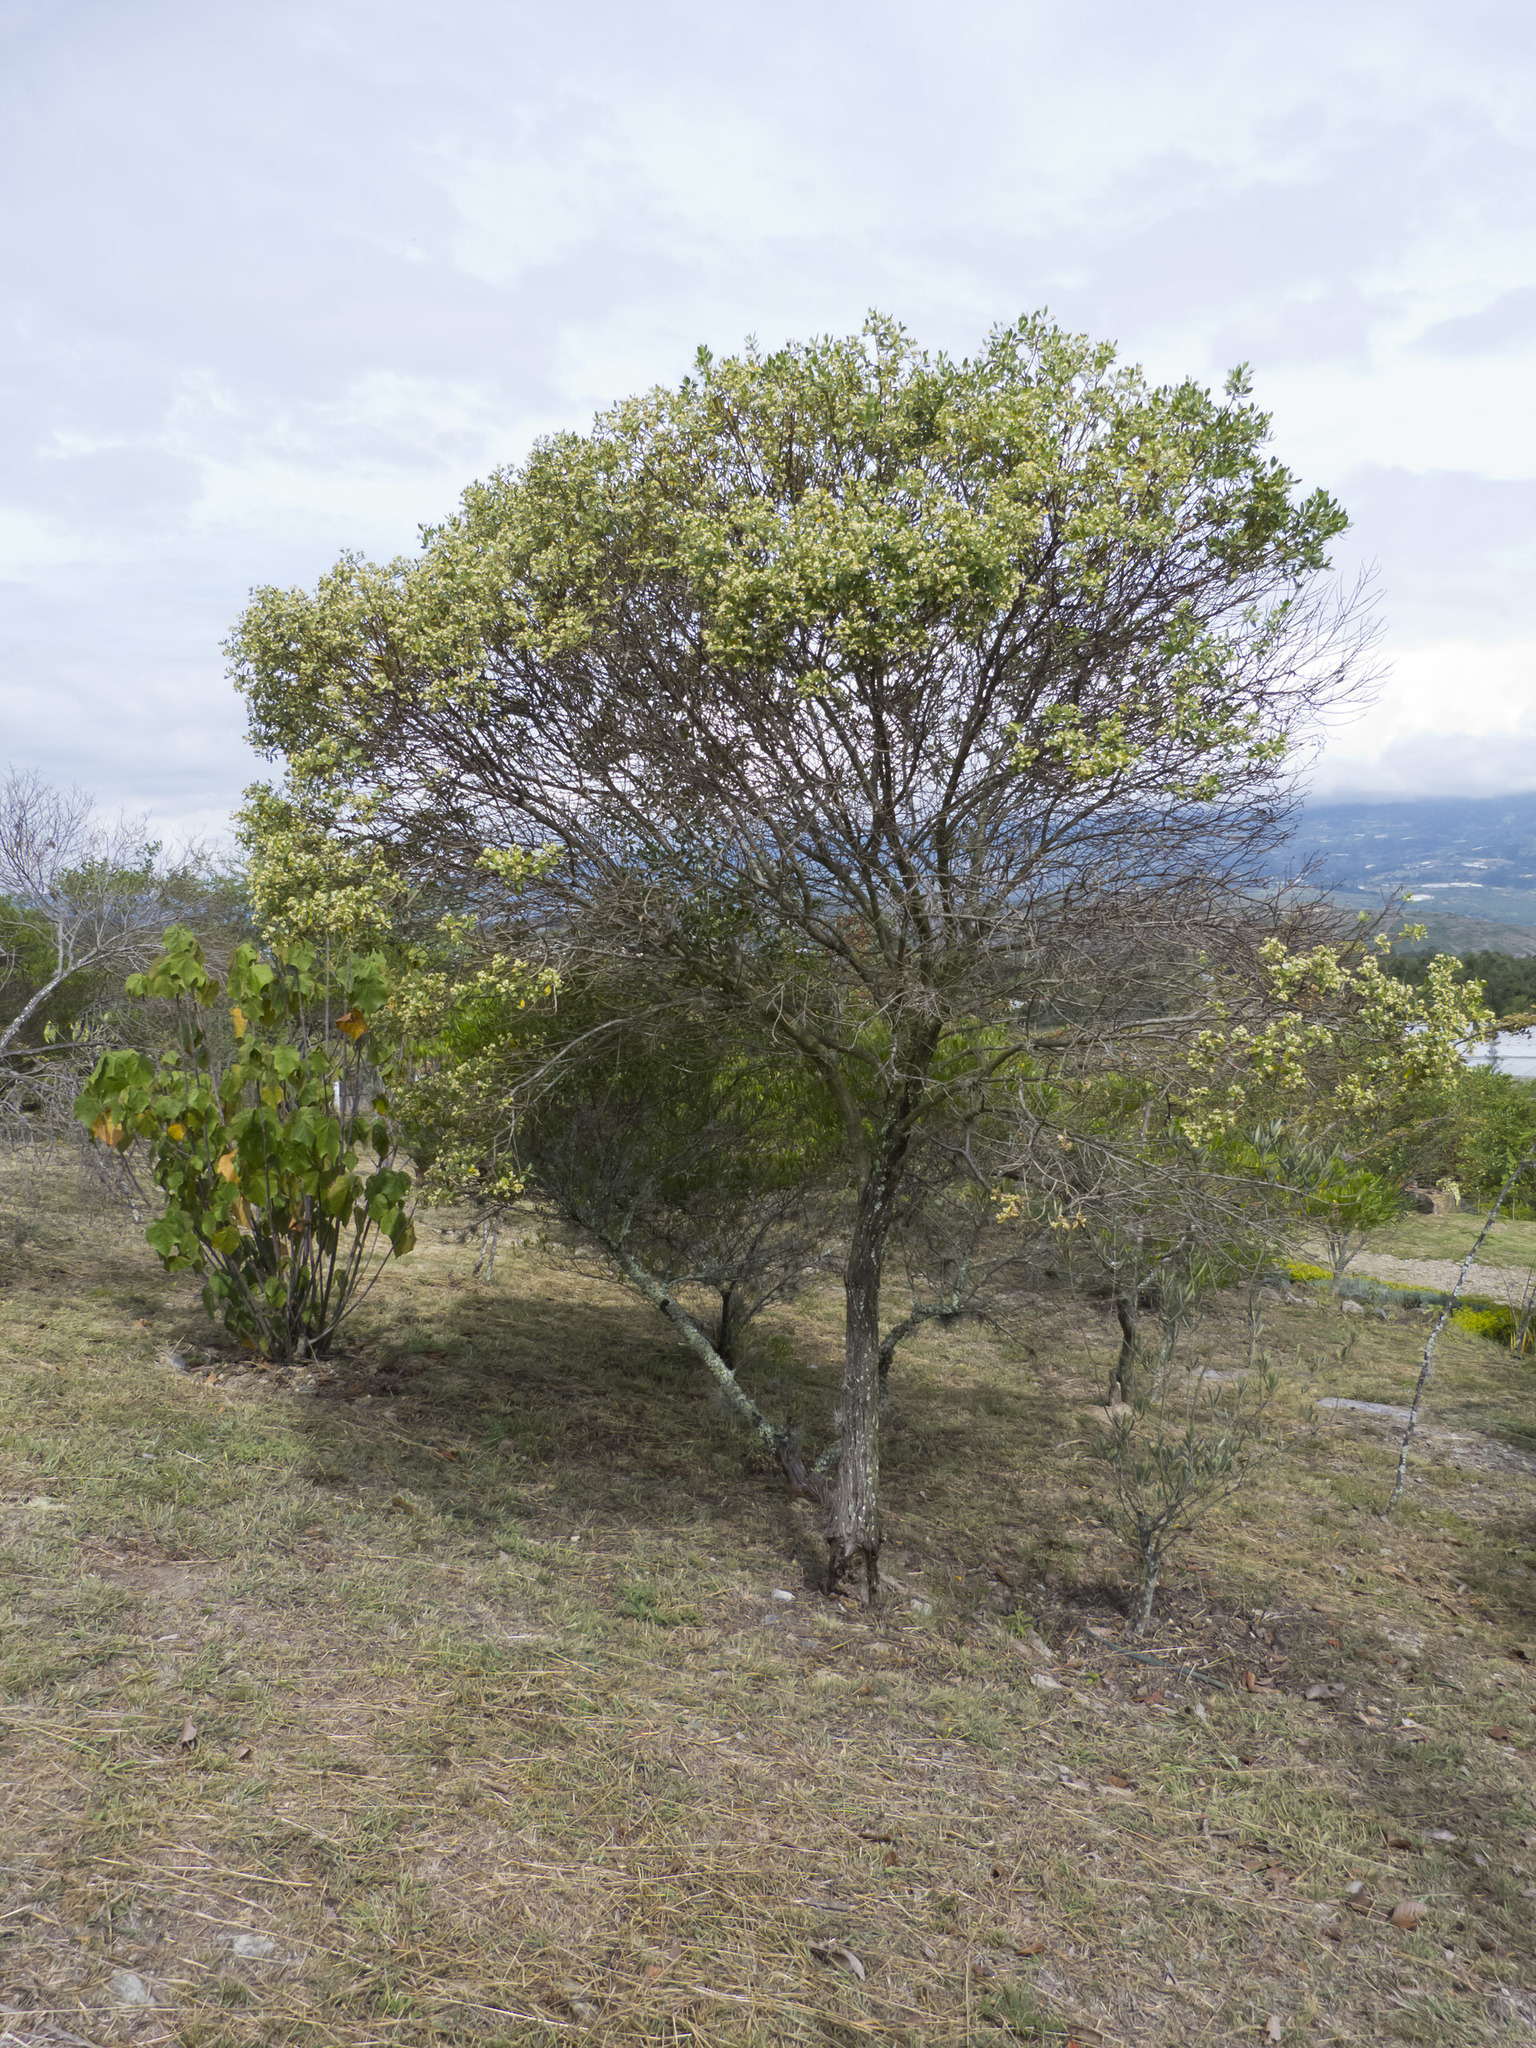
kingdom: Plantae
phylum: Tracheophyta
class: Magnoliopsida
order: Asterales
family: Asteraceae
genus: Baccharis
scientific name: Baccharis macrantha
